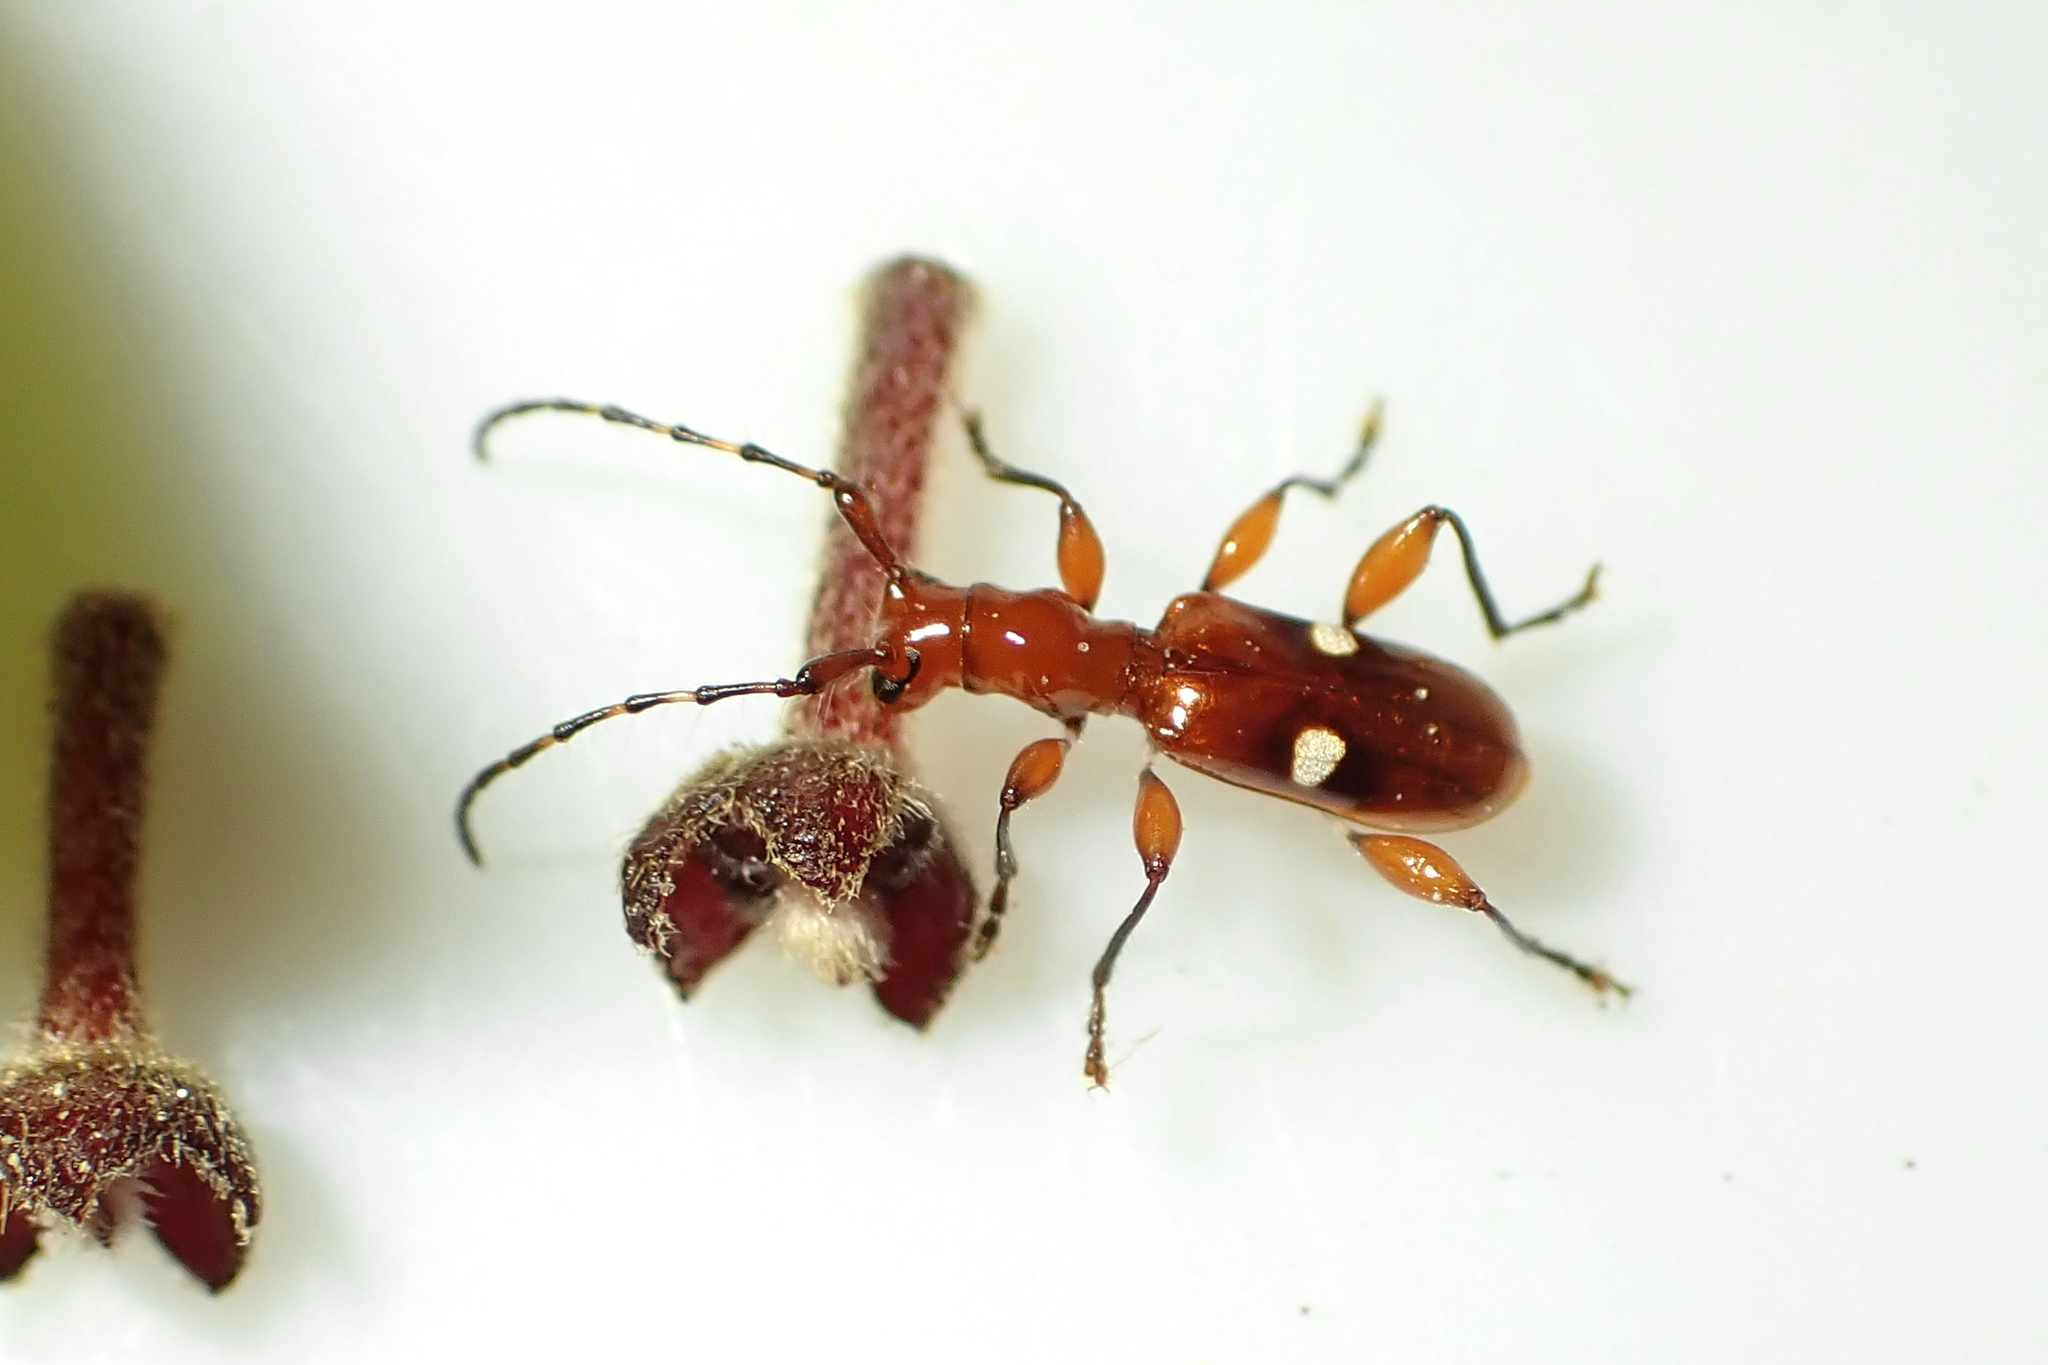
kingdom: Animalia
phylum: Arthropoda
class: Insecta
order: Coleoptera
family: Cerambycidae
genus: Zorion
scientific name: Zorion batesi
